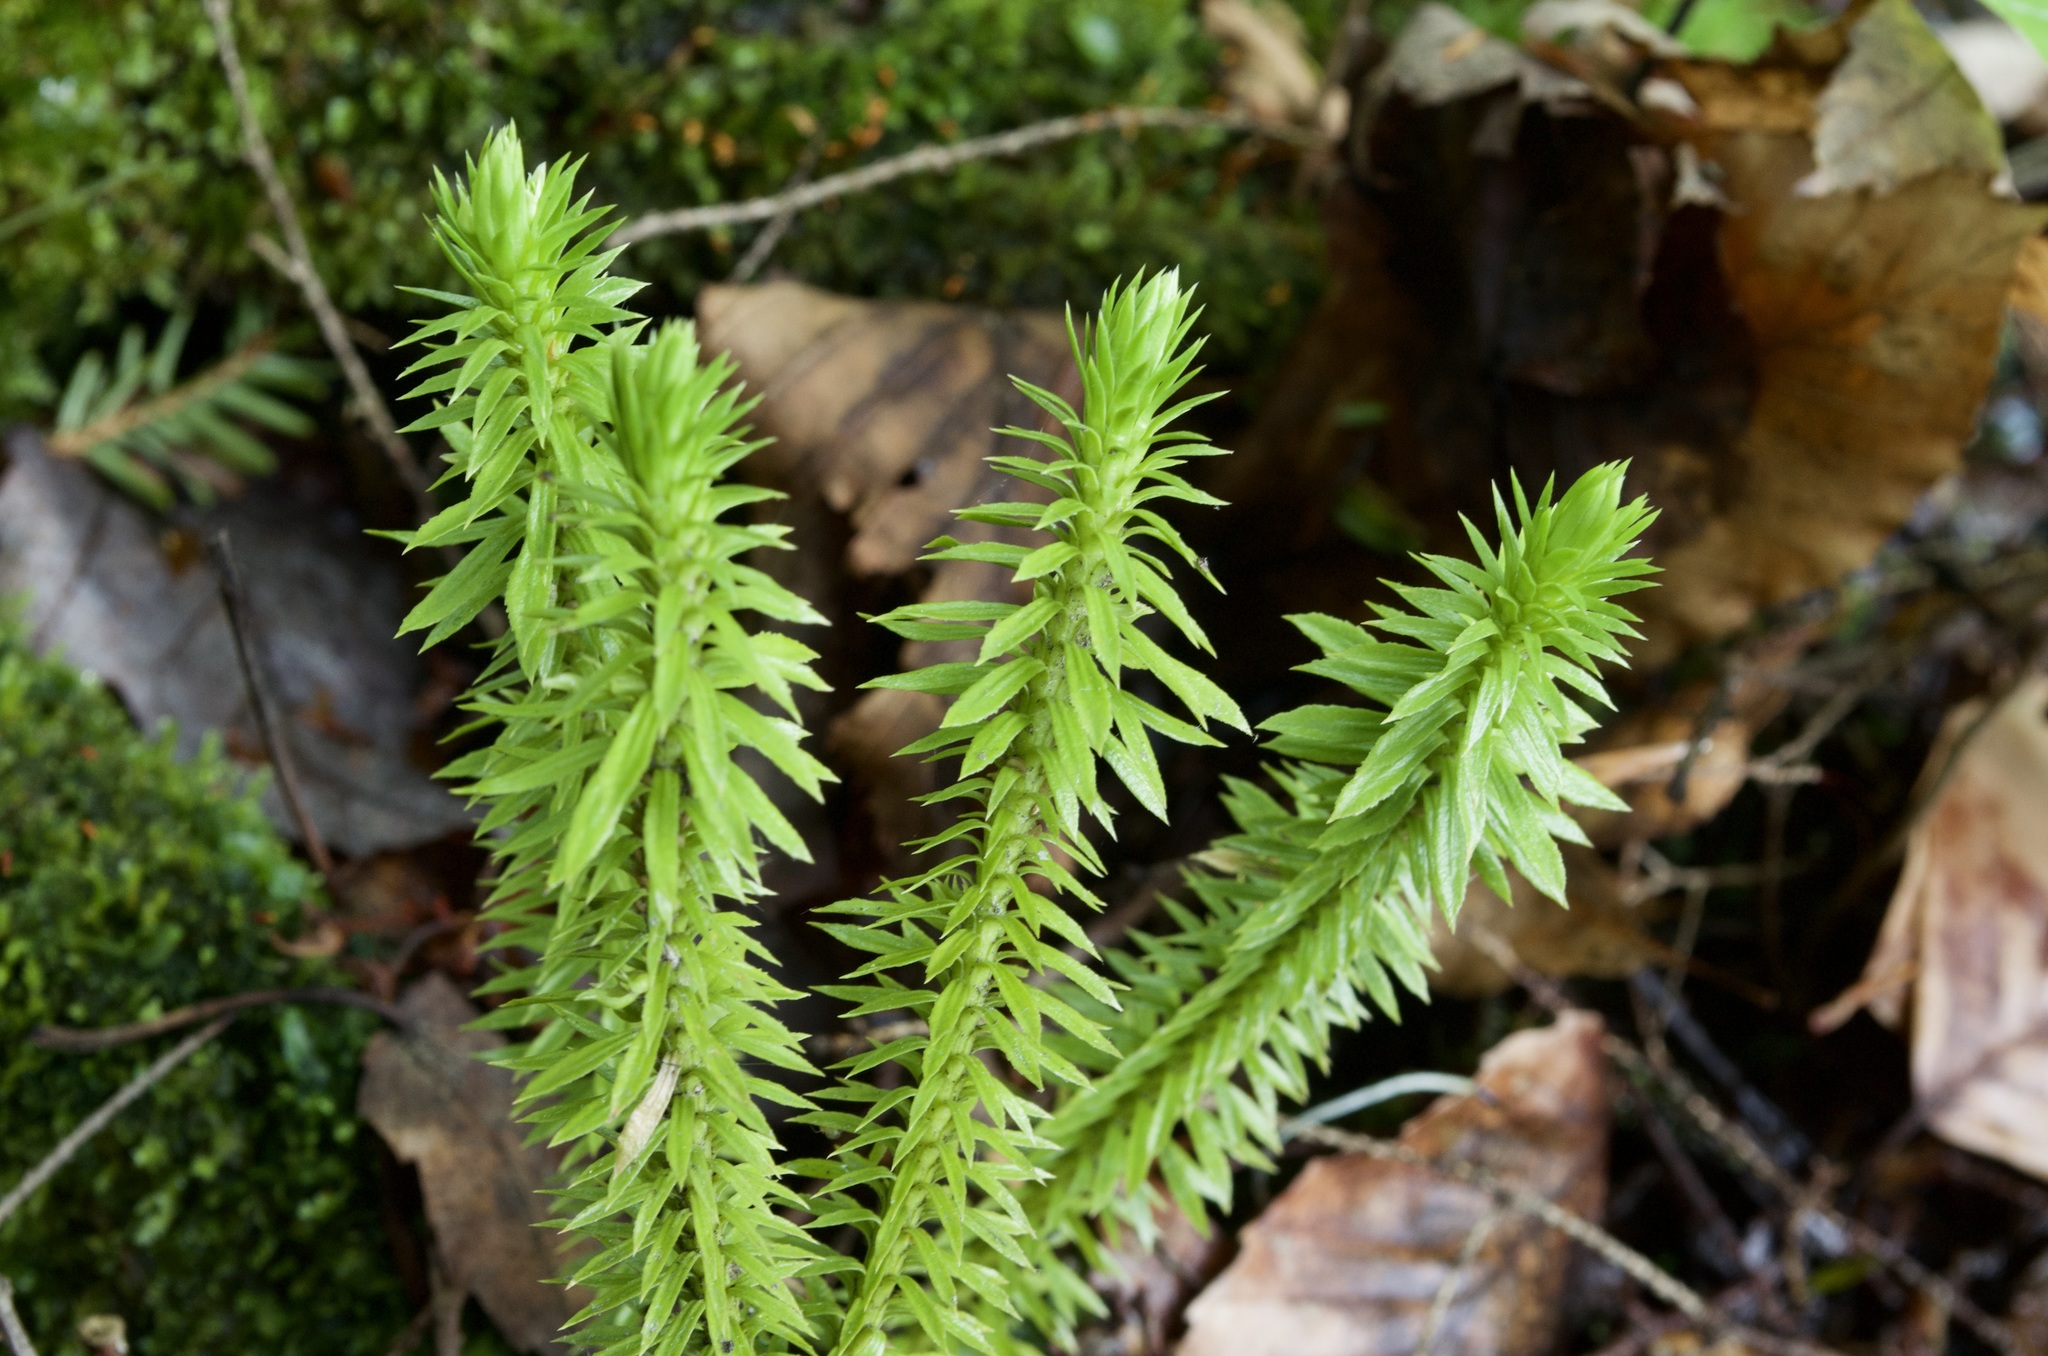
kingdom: Plantae
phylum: Tracheophyta
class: Lycopodiopsida
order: Lycopodiales
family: Lycopodiaceae
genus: Huperzia
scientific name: Huperzia lucidula
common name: Shining clubmoss
